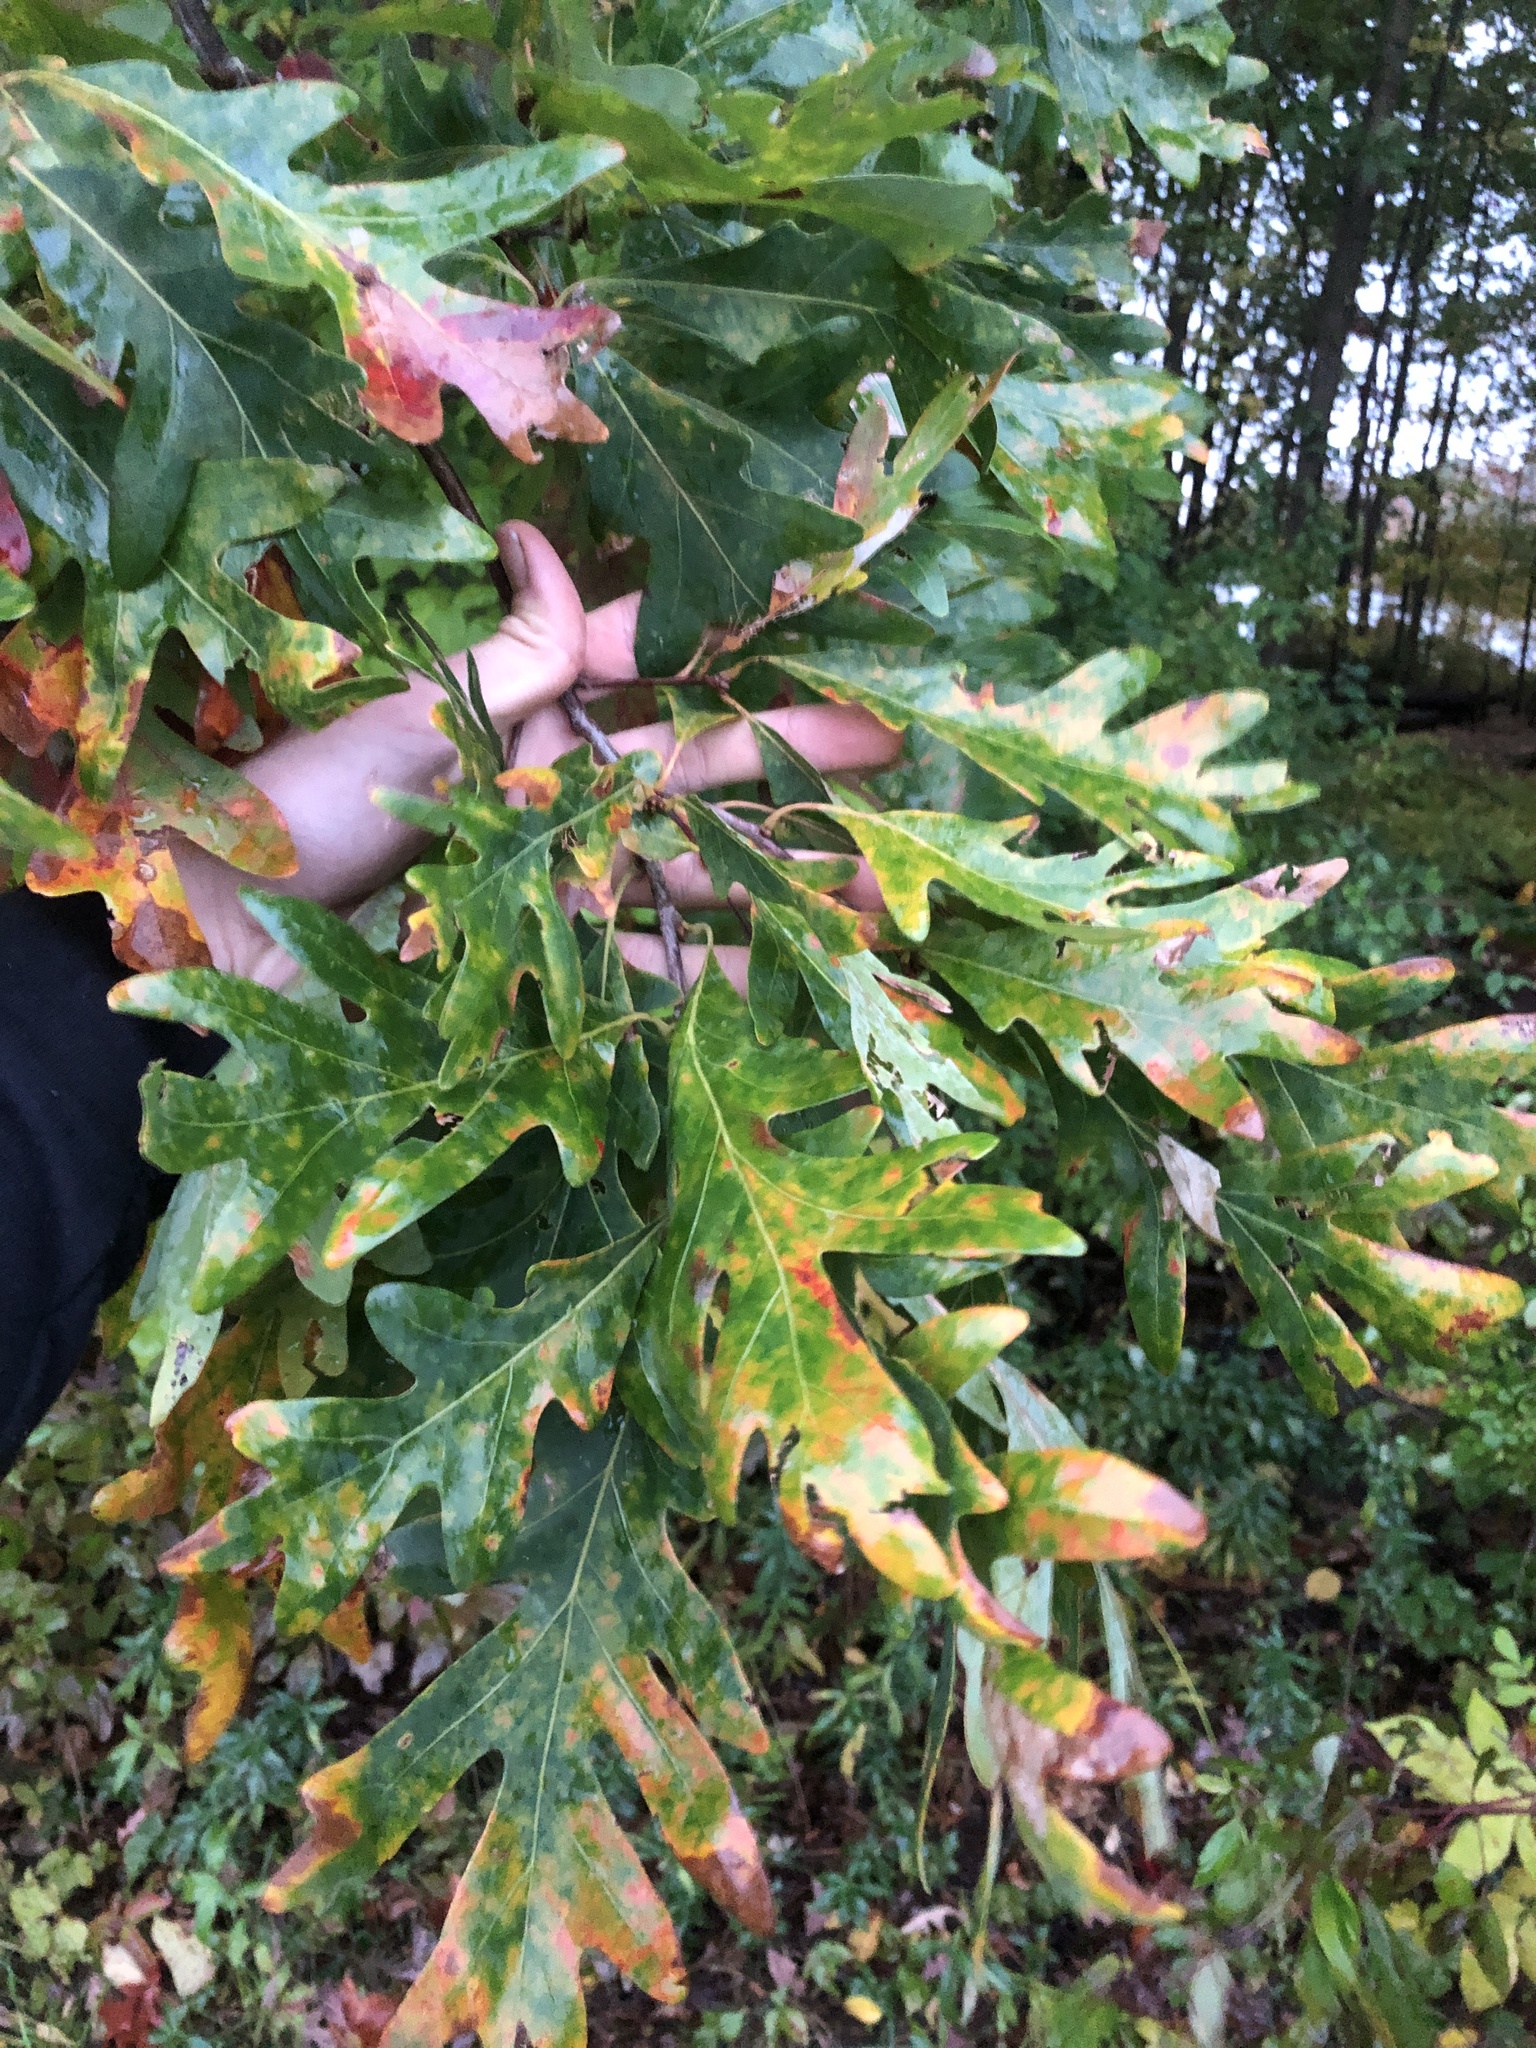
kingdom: Plantae
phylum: Tracheophyta
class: Magnoliopsida
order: Fagales
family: Fagaceae
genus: Quercus
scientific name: Quercus alba
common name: White oak
